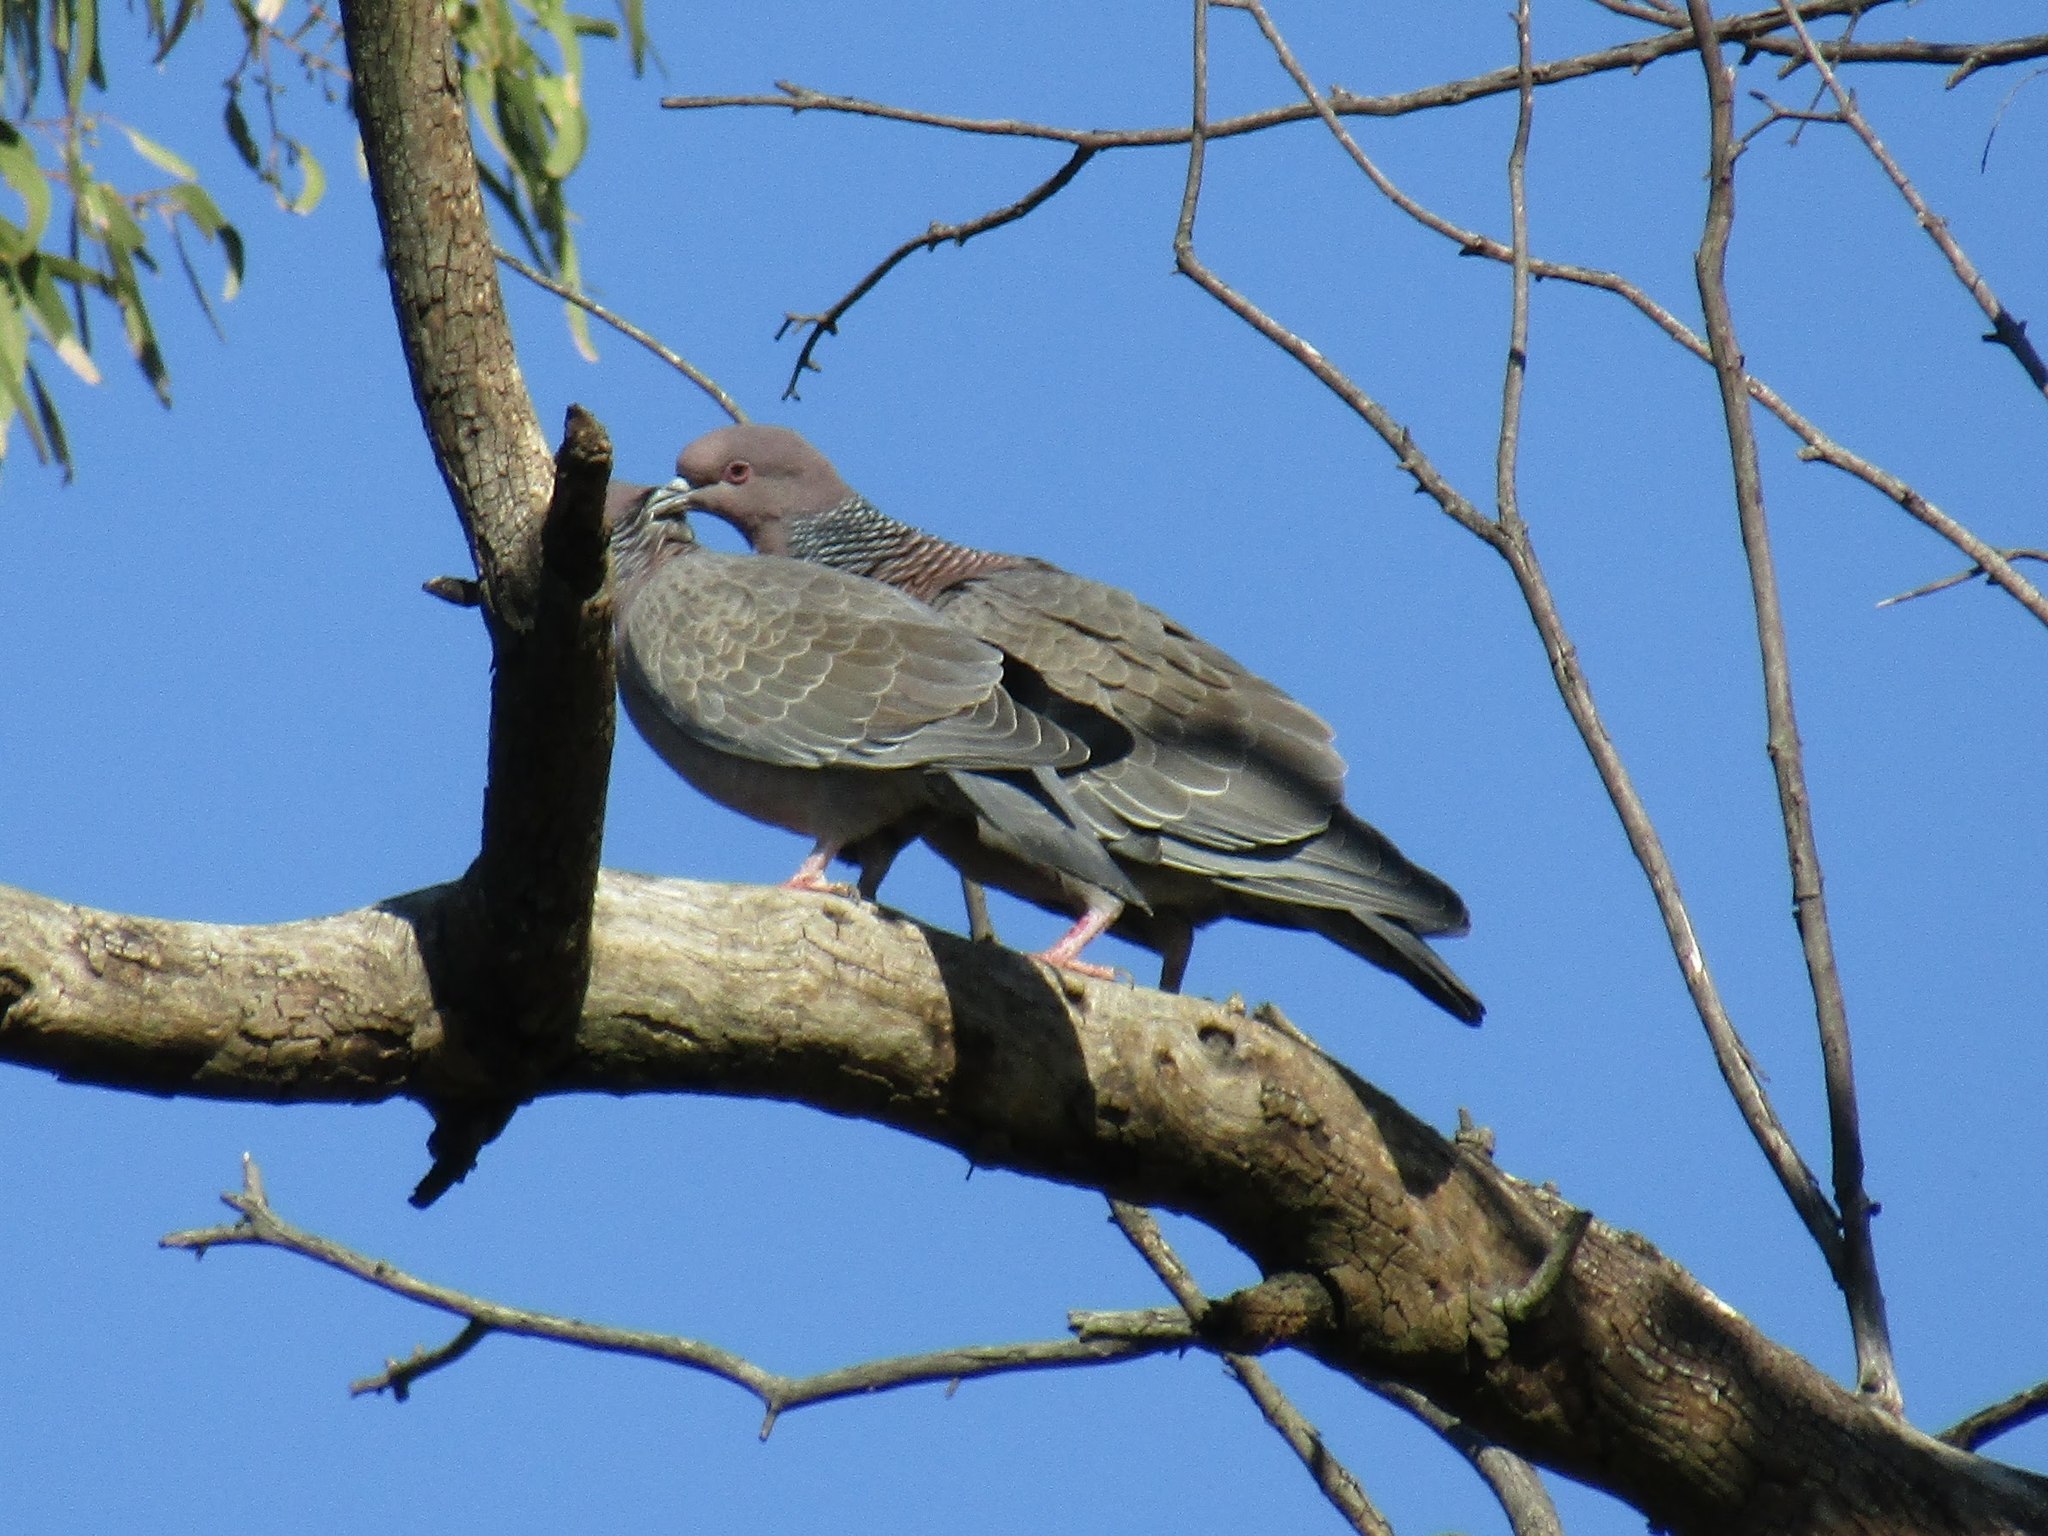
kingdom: Animalia
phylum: Chordata
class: Aves
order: Columbiformes
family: Columbidae
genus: Patagioenas
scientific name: Patagioenas picazuro
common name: Picazuro pigeon
